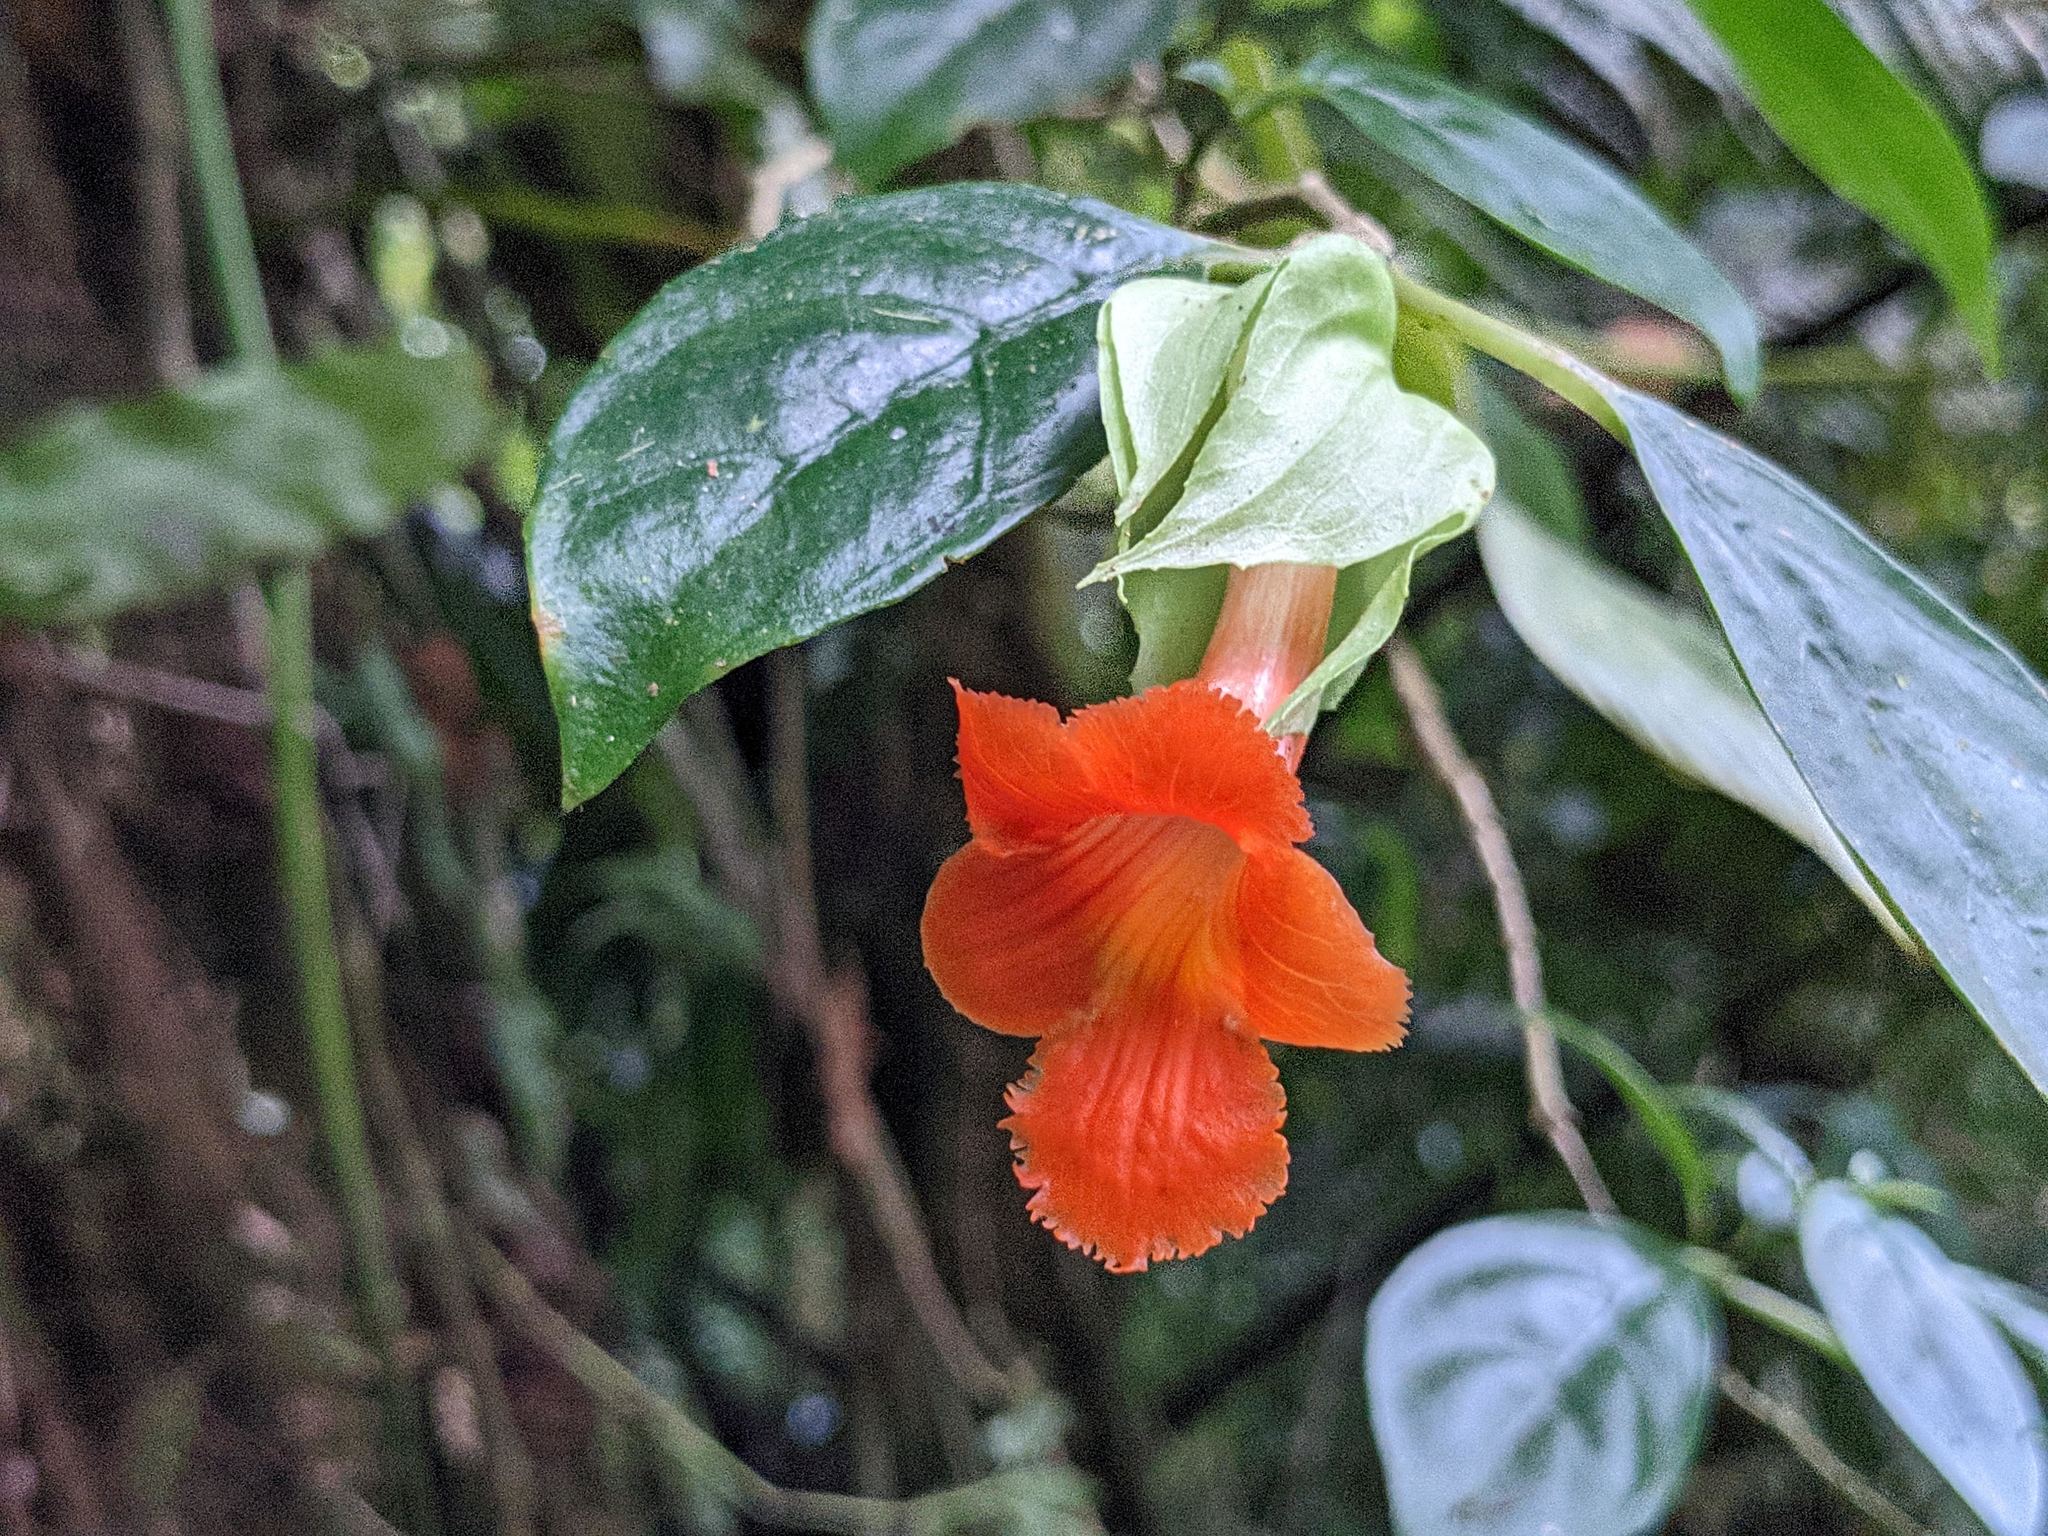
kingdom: Plantae
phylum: Tracheophyta
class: Magnoliopsida
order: Lamiales
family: Gesneriaceae
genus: Drymonia
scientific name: Drymonia rubra
